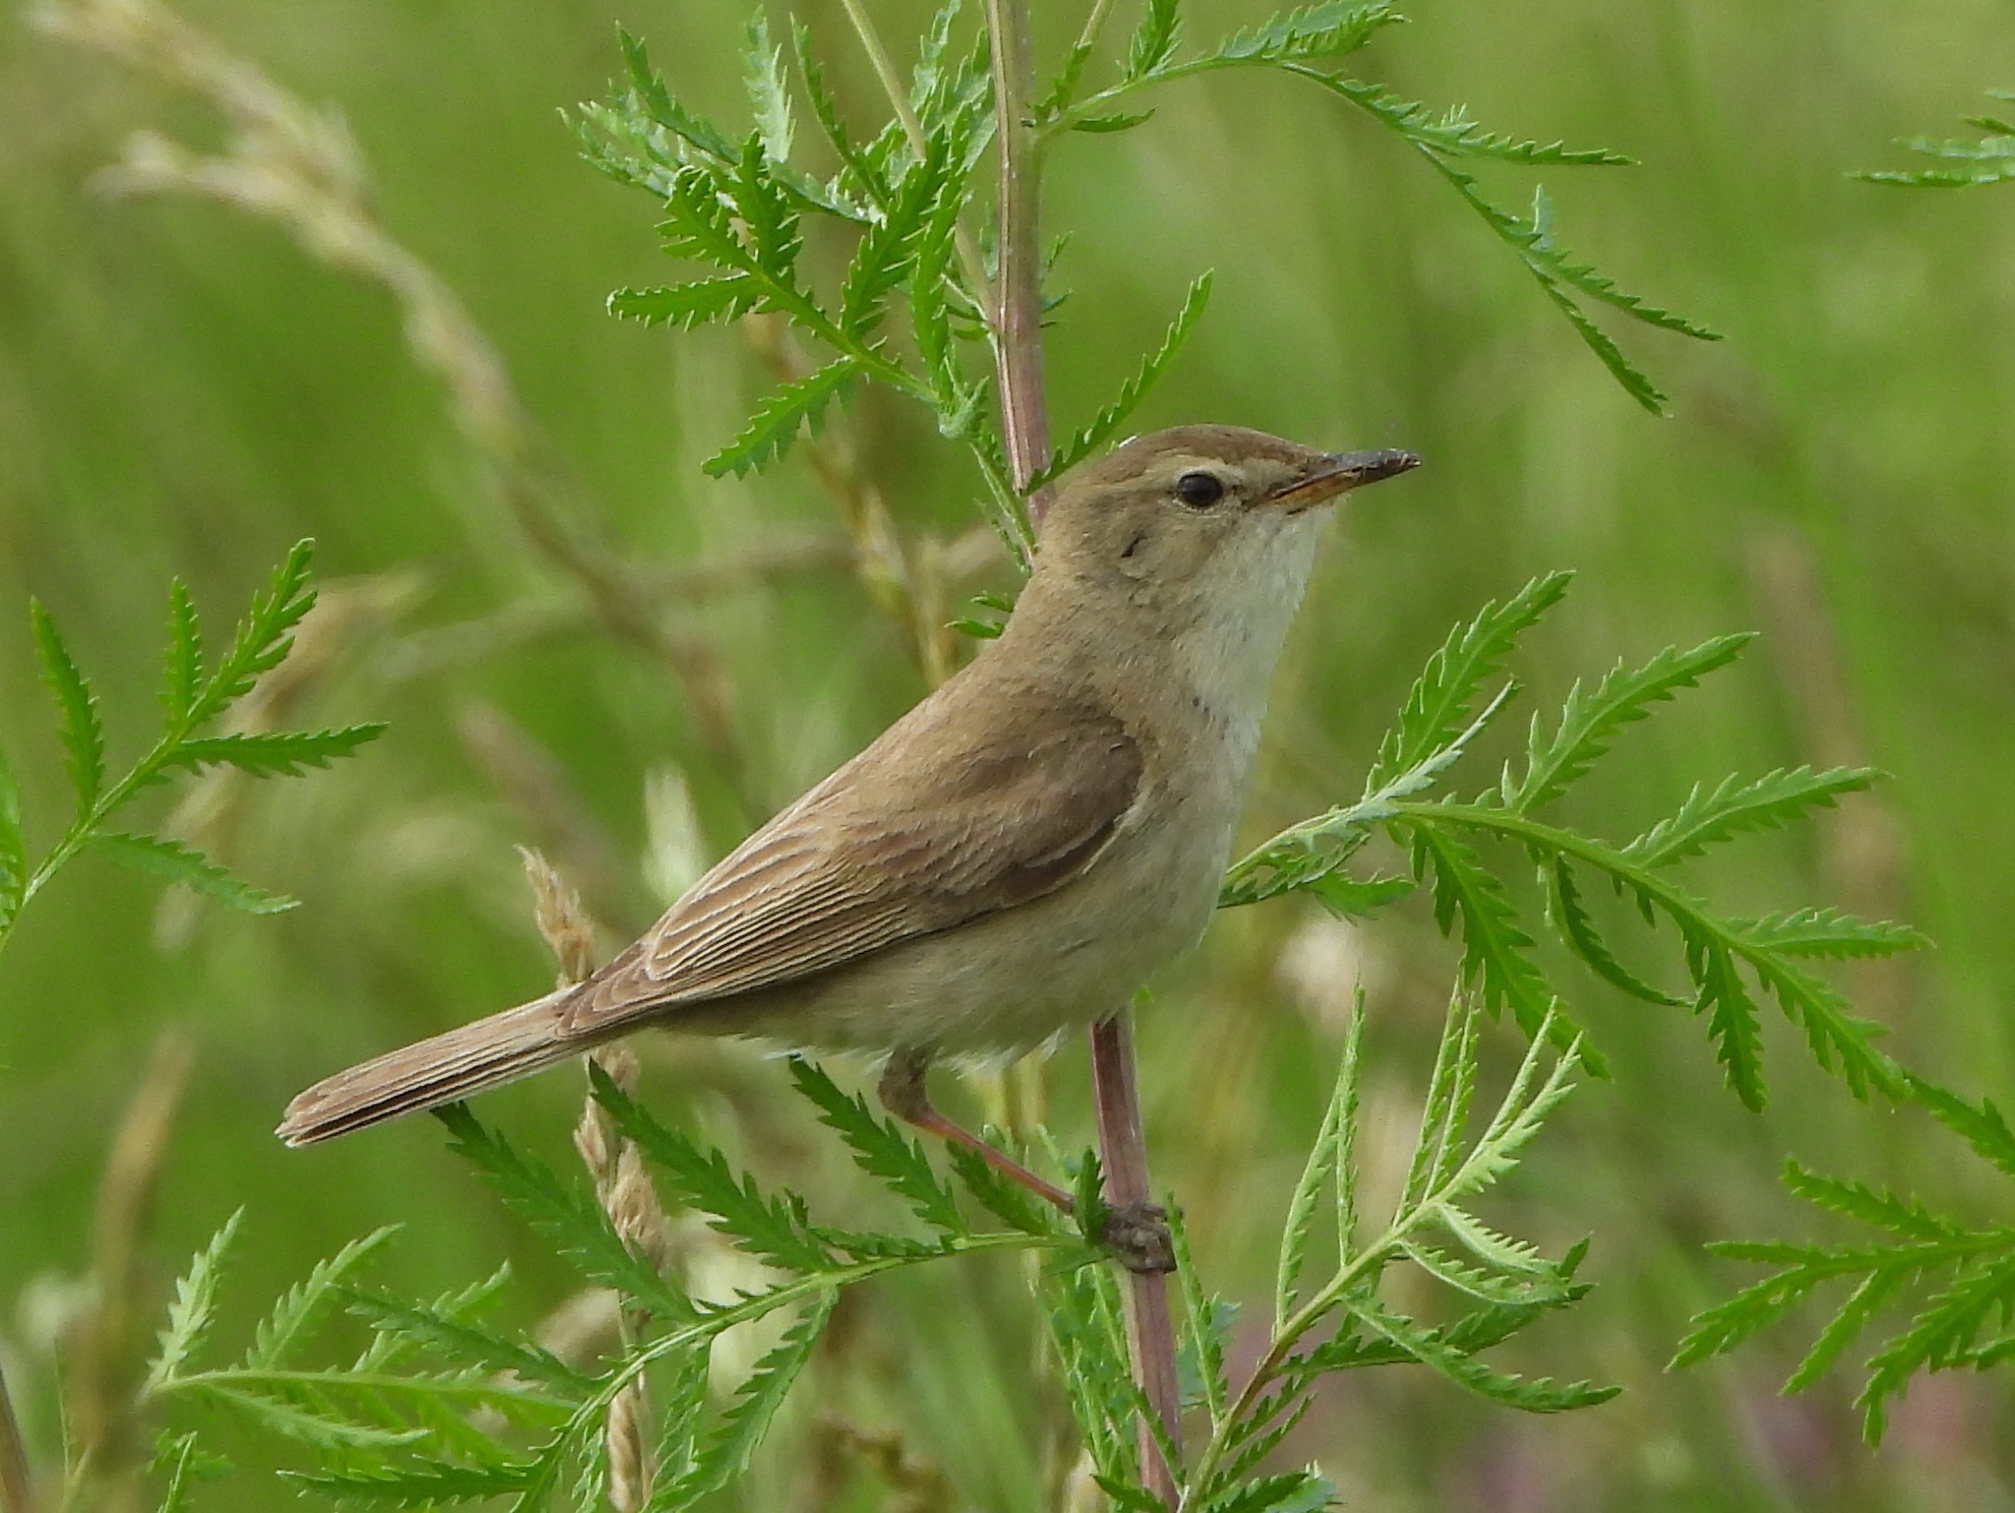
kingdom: Animalia
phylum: Chordata
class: Aves
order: Passeriformes
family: Acrocephalidae
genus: Iduna
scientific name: Iduna caligata
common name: Booted warbler
